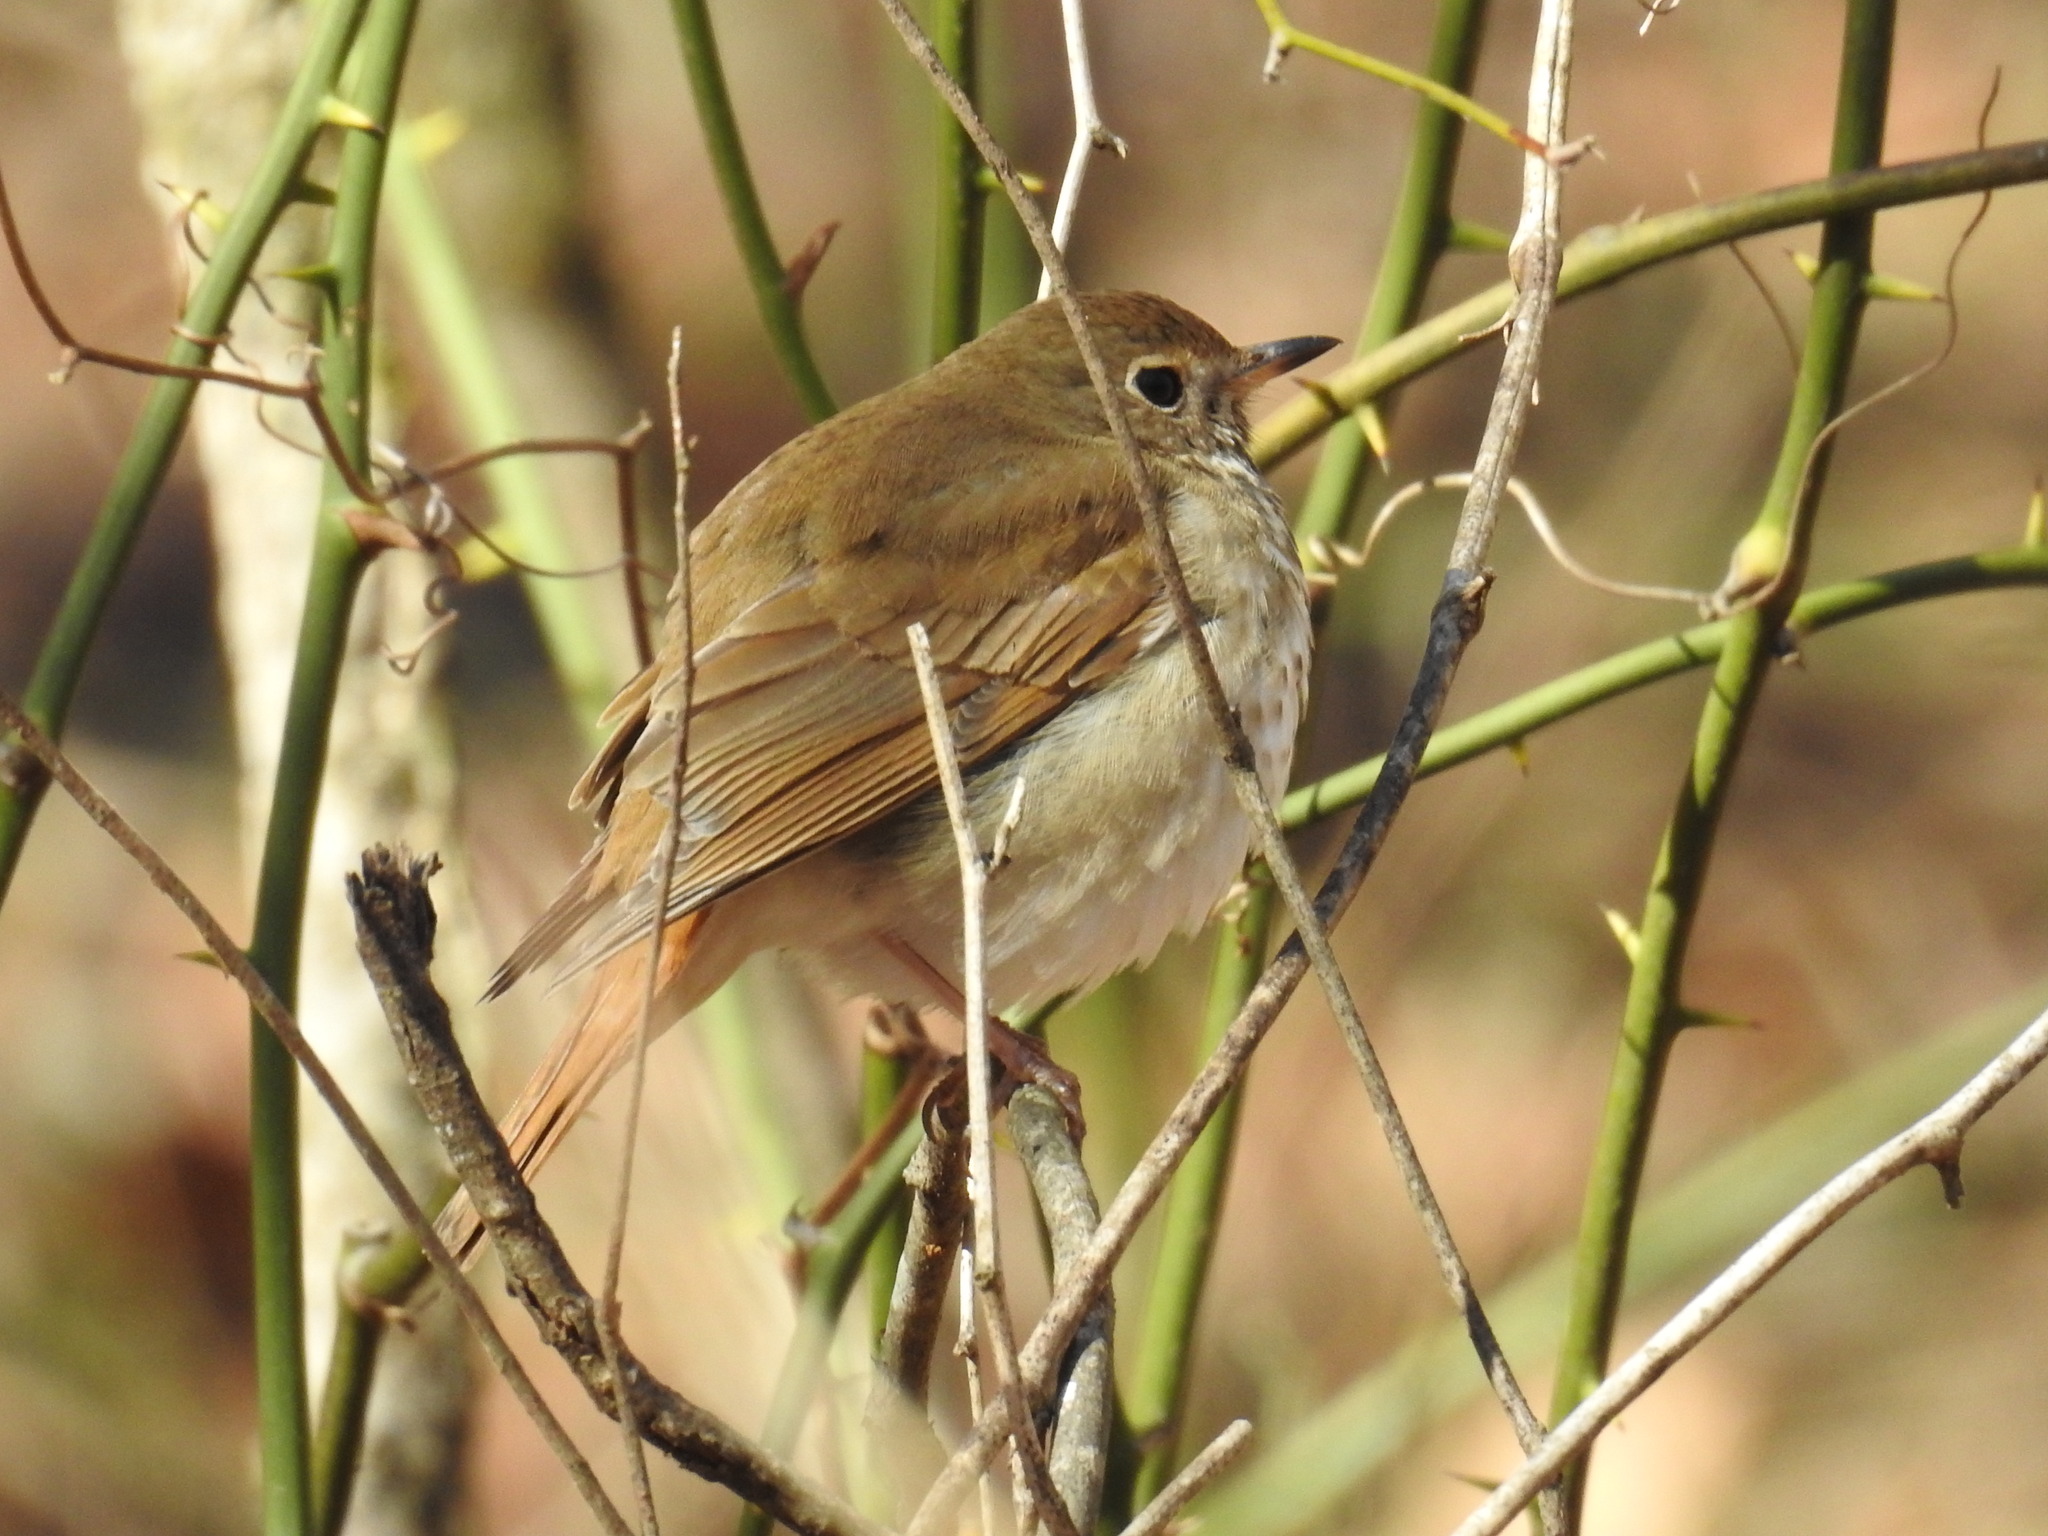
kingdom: Animalia
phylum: Chordata
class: Aves
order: Passeriformes
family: Turdidae
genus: Catharus
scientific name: Catharus guttatus
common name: Hermit thrush
